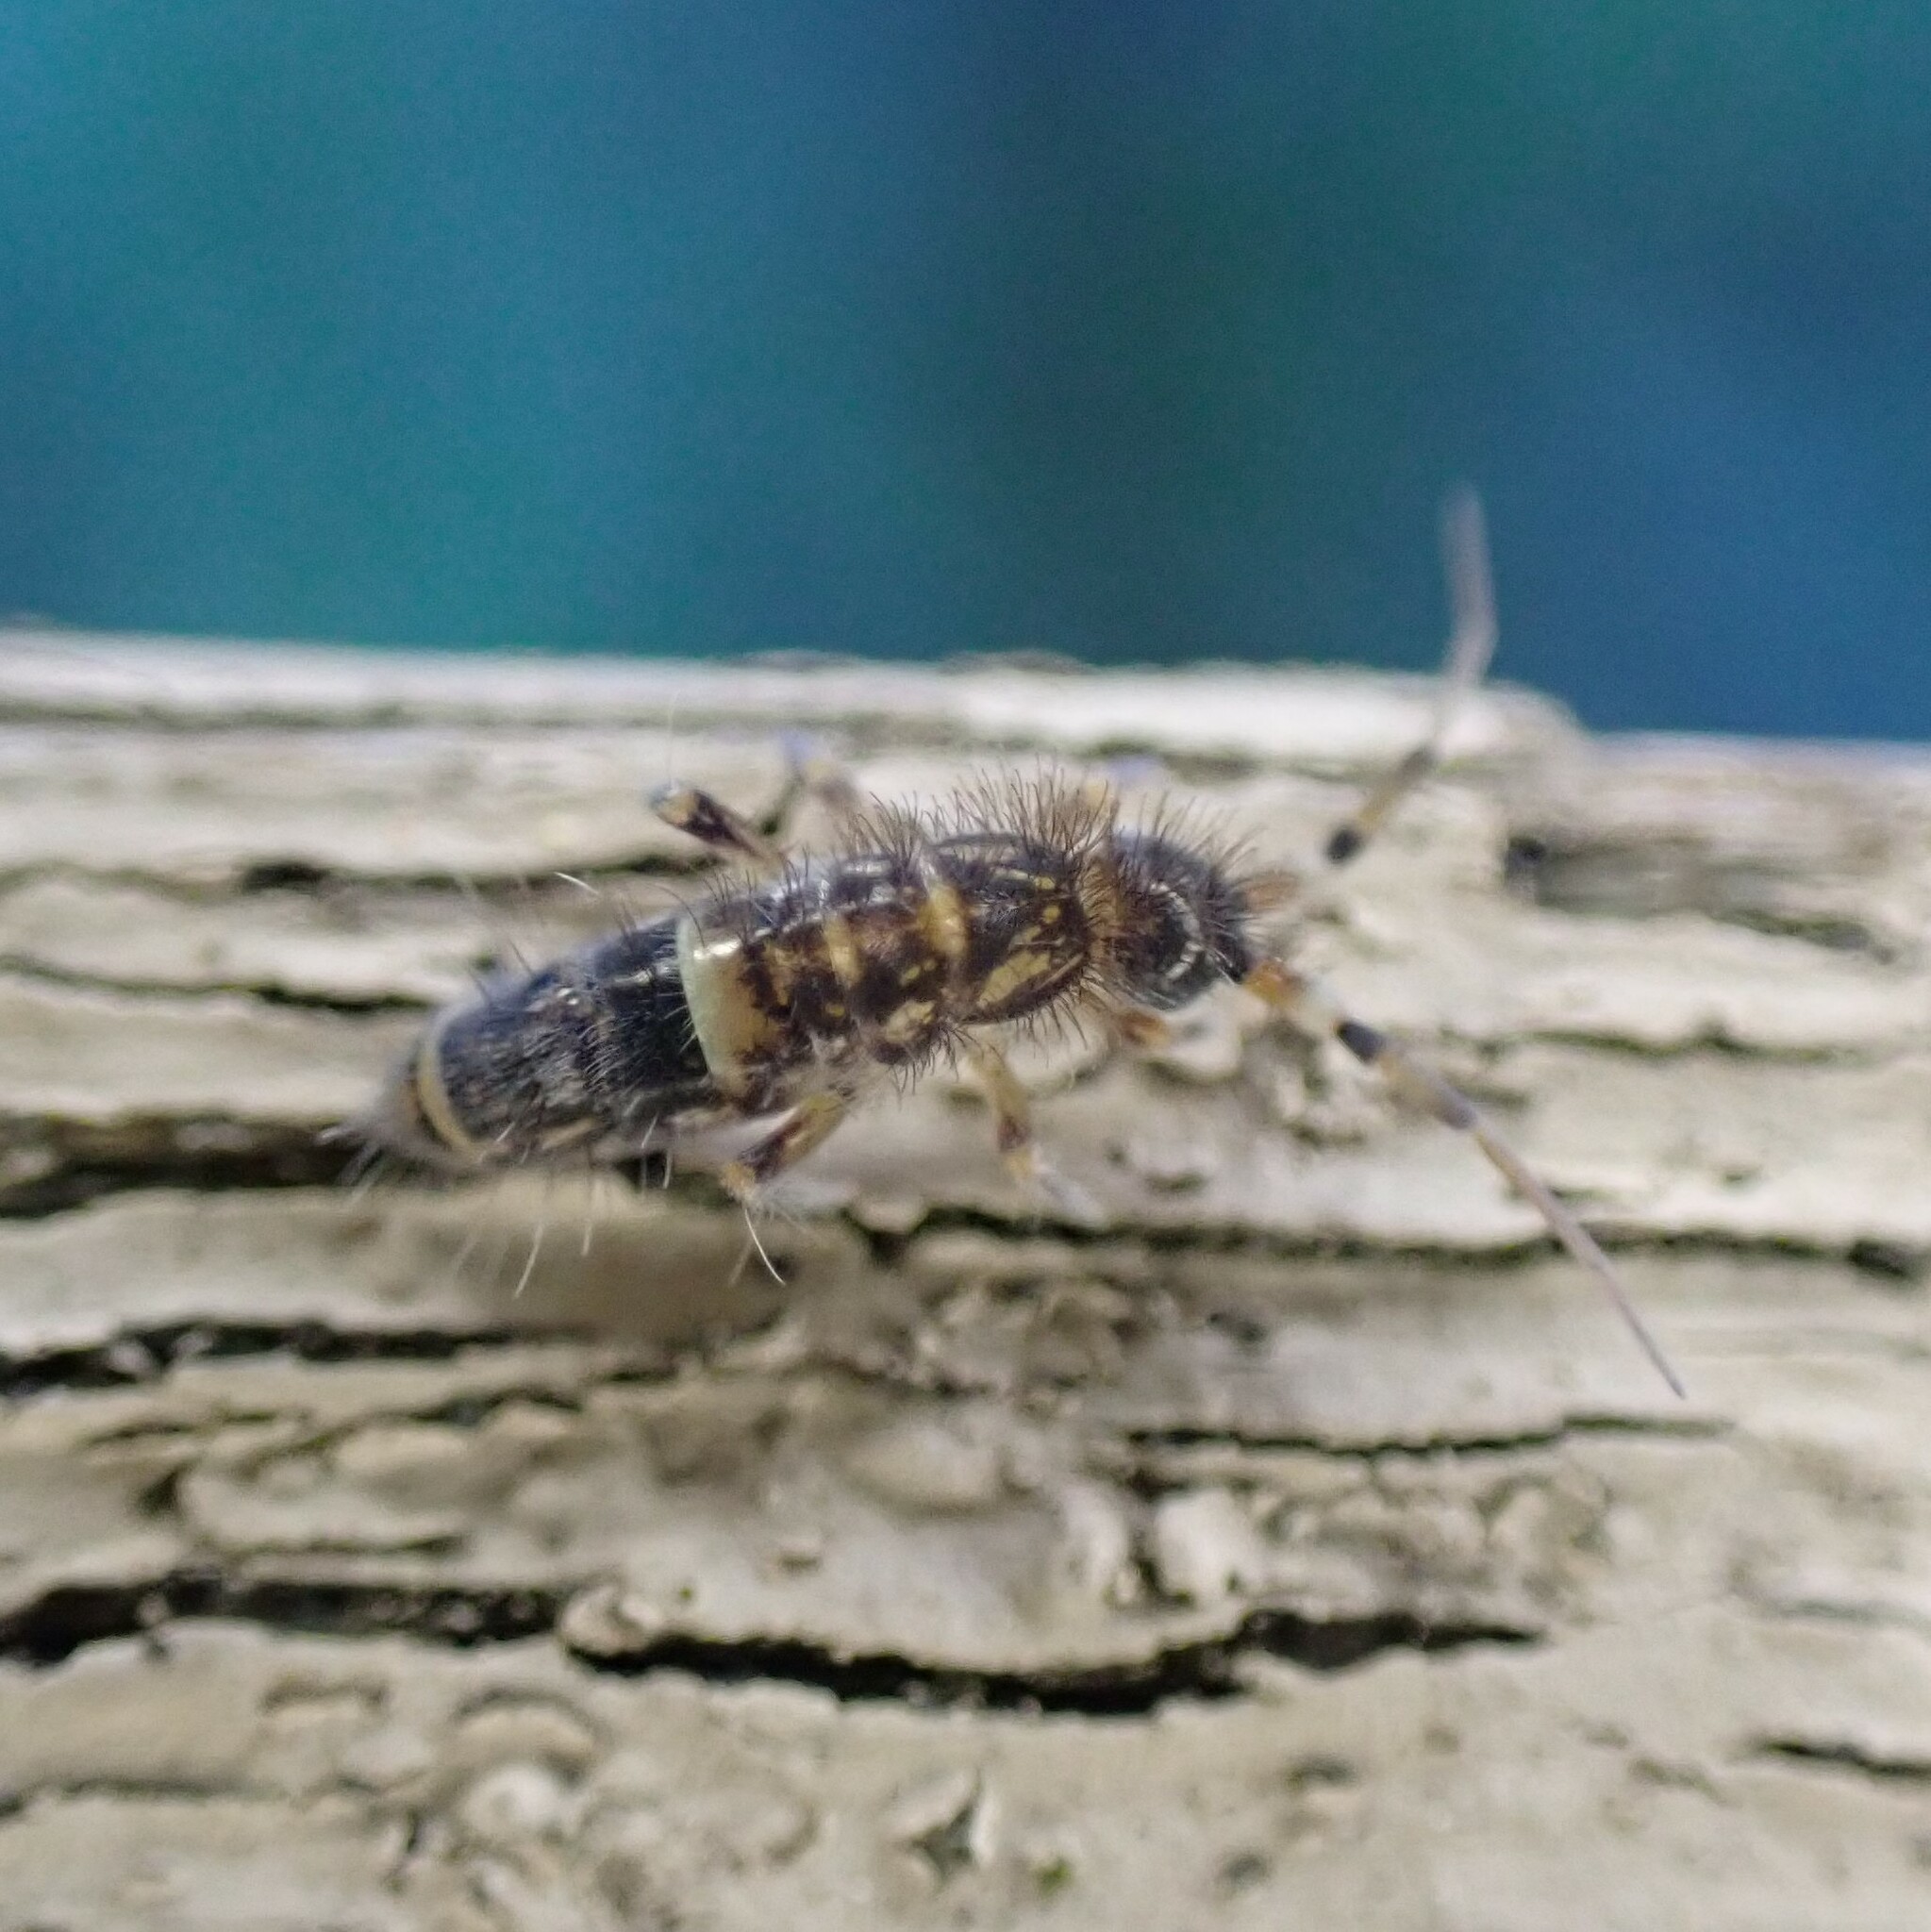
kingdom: Animalia
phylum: Arthropoda
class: Collembola
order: Entomobryomorpha
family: Orchesellidae
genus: Orchesella
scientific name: Orchesella cincta
